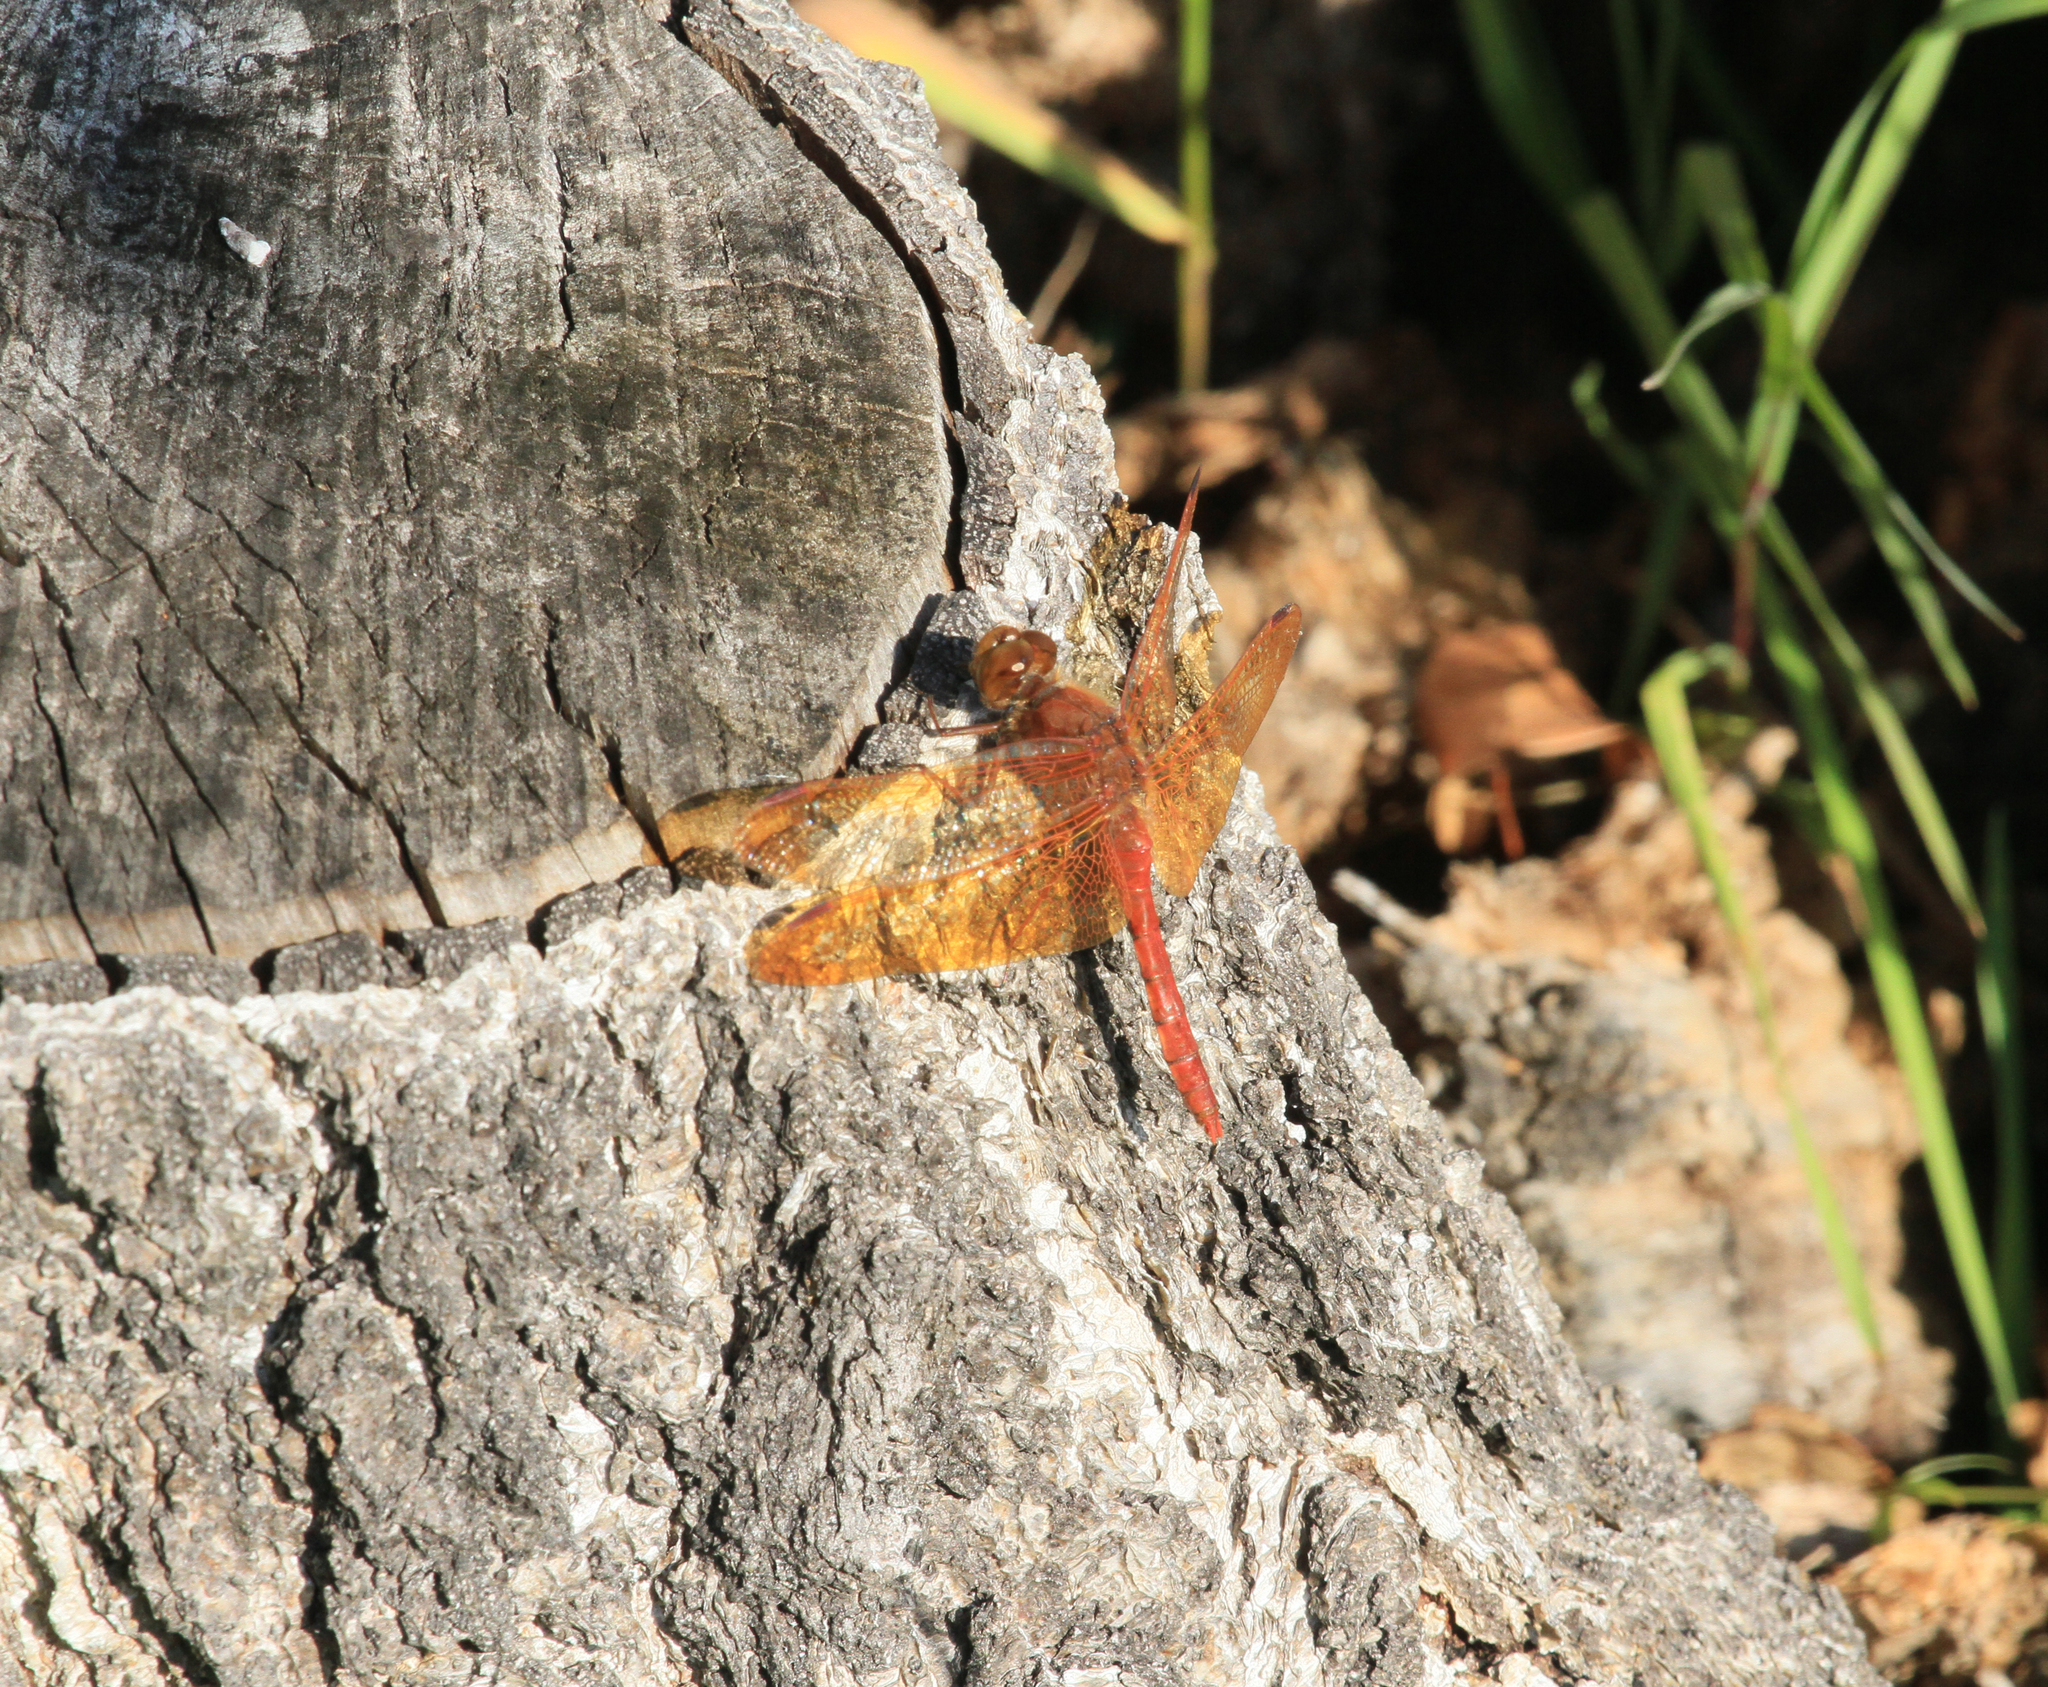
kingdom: Animalia
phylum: Arthropoda
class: Insecta
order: Odonata
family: Libellulidae
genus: Sympetrum
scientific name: Sympetrum croceolum
